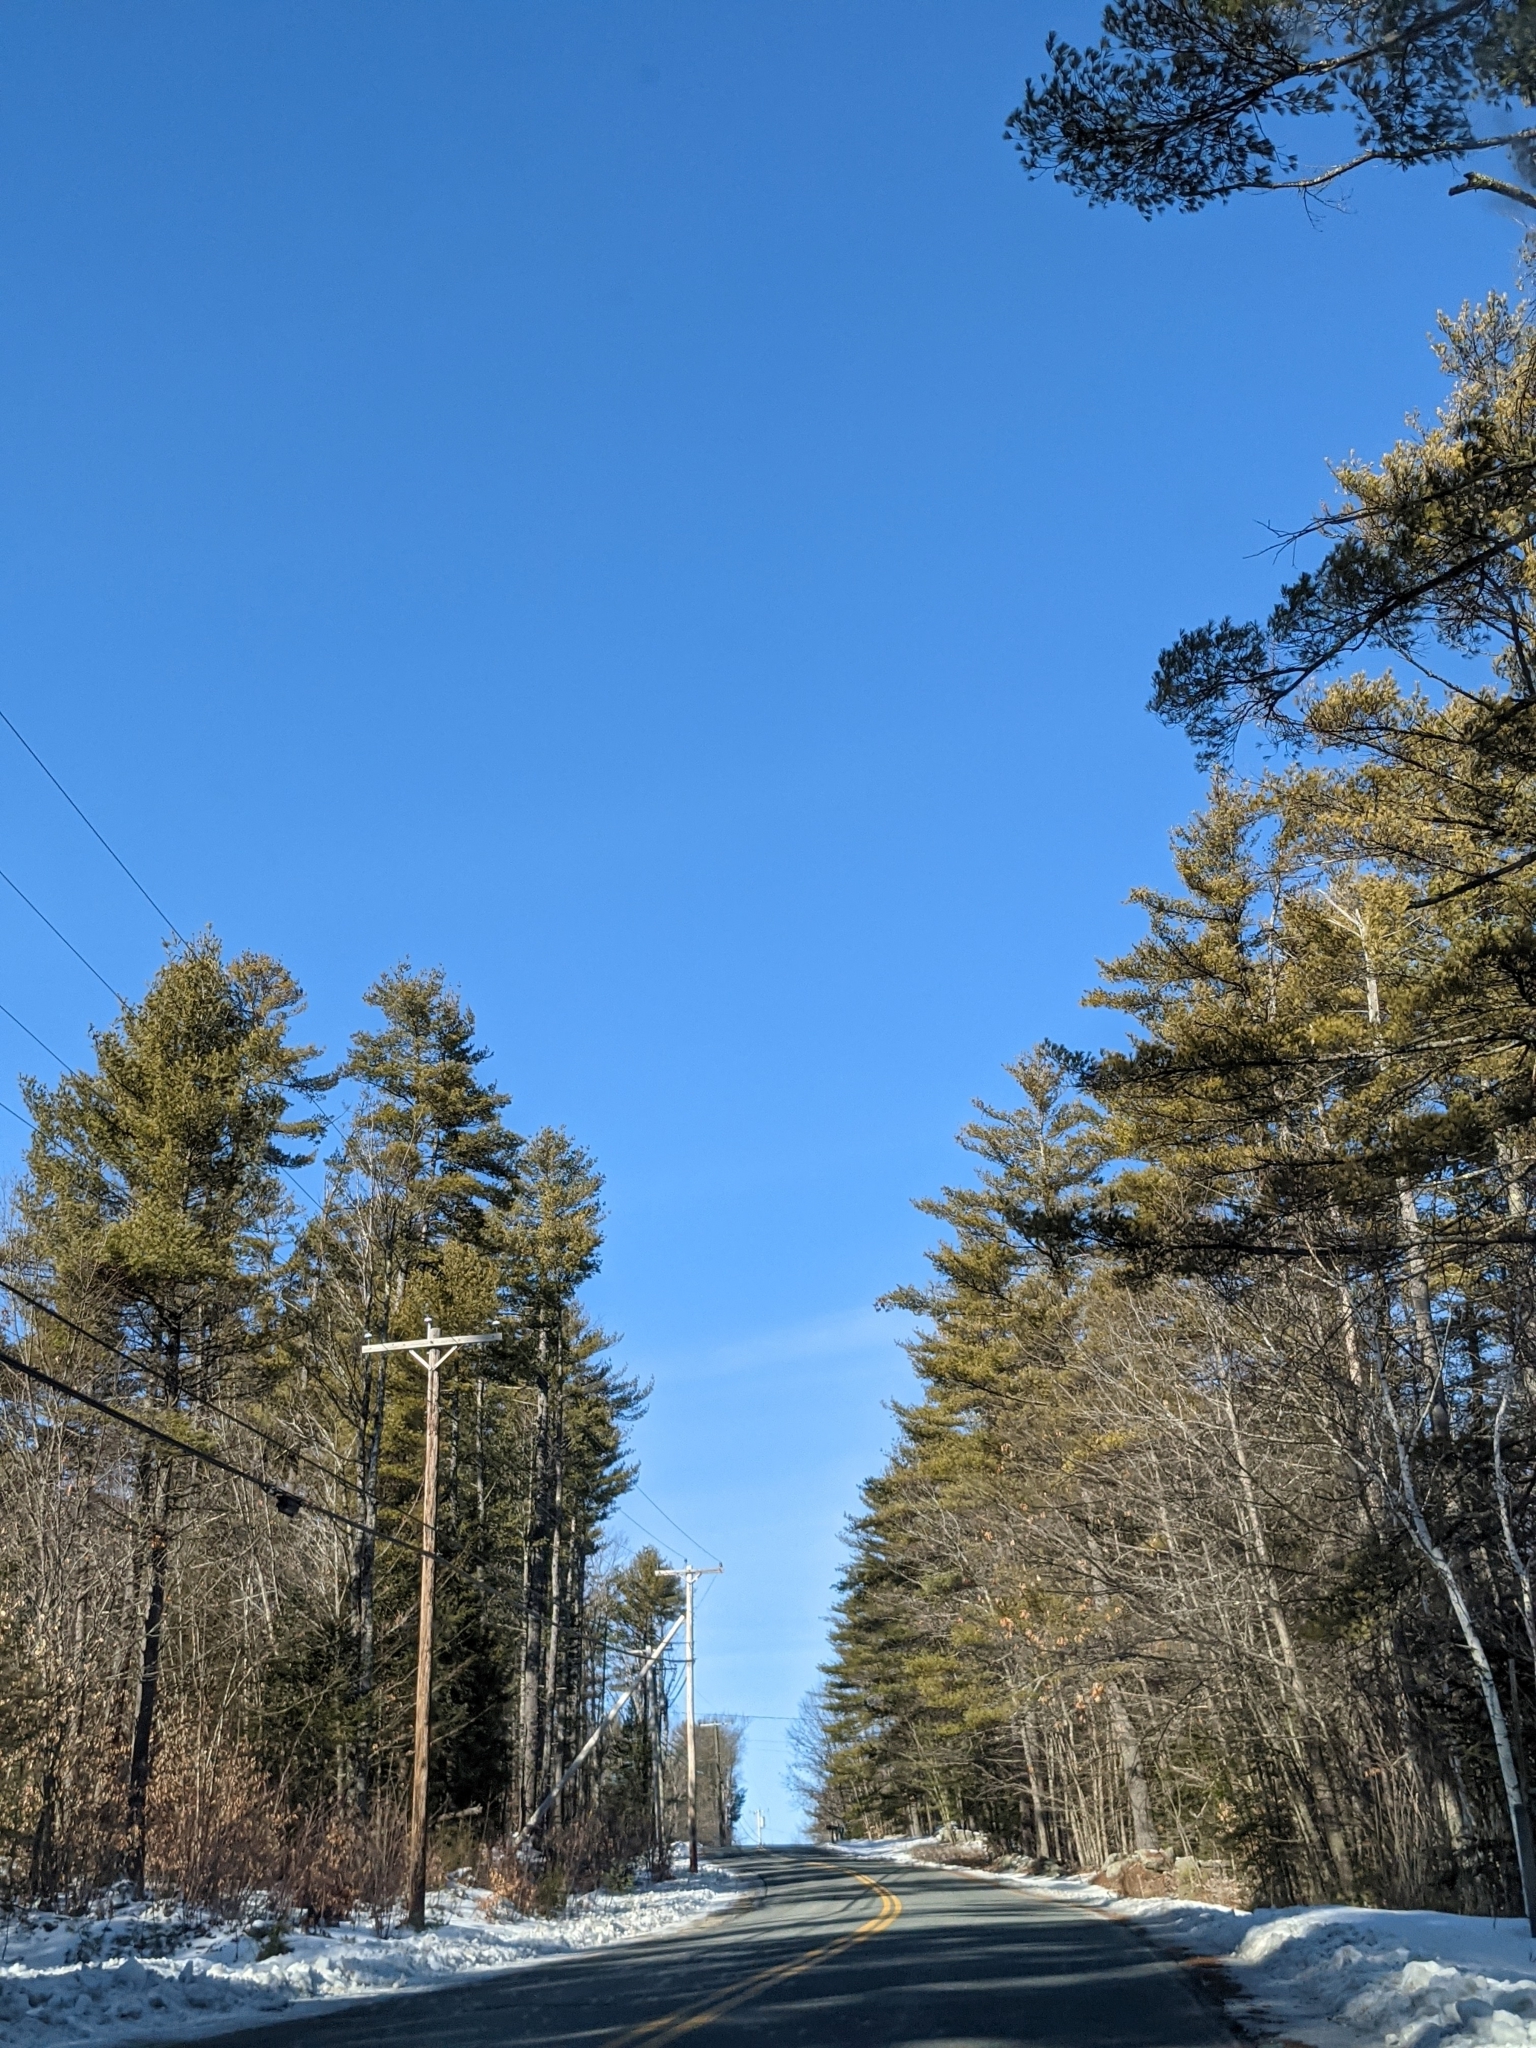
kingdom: Plantae
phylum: Tracheophyta
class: Pinopsida
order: Pinales
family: Pinaceae
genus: Pinus
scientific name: Pinus strobus
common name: Weymouth pine
